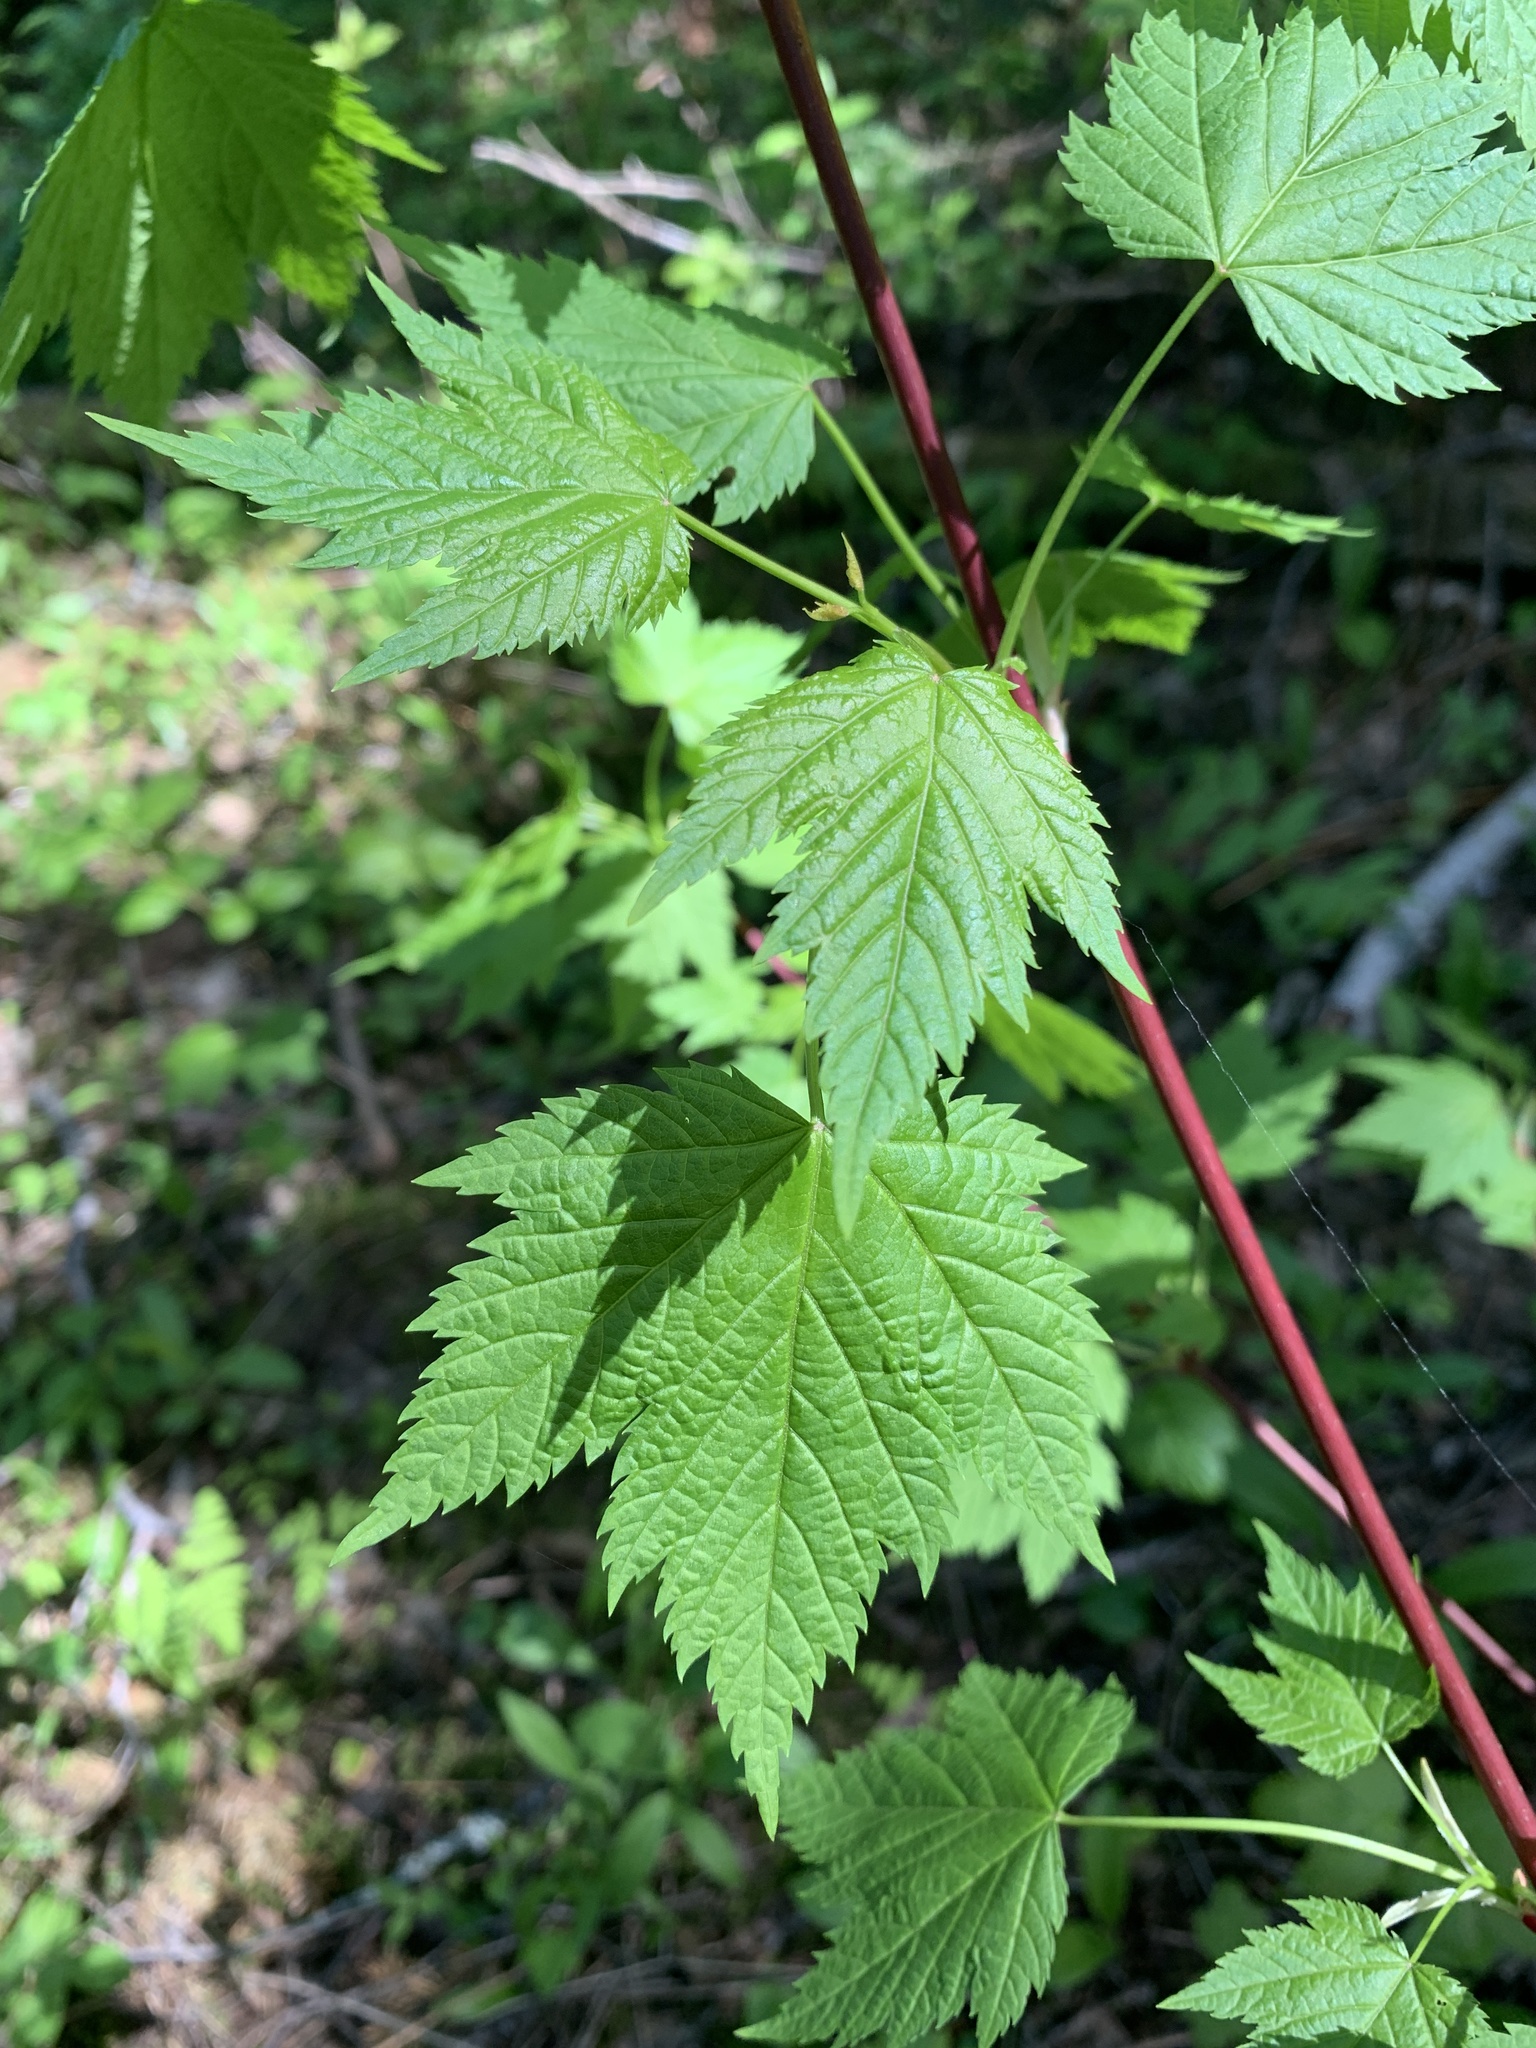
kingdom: Plantae
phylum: Tracheophyta
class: Magnoliopsida
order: Sapindales
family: Sapindaceae
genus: Acer
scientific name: Acer glabrum
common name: Rocky mountain maple
